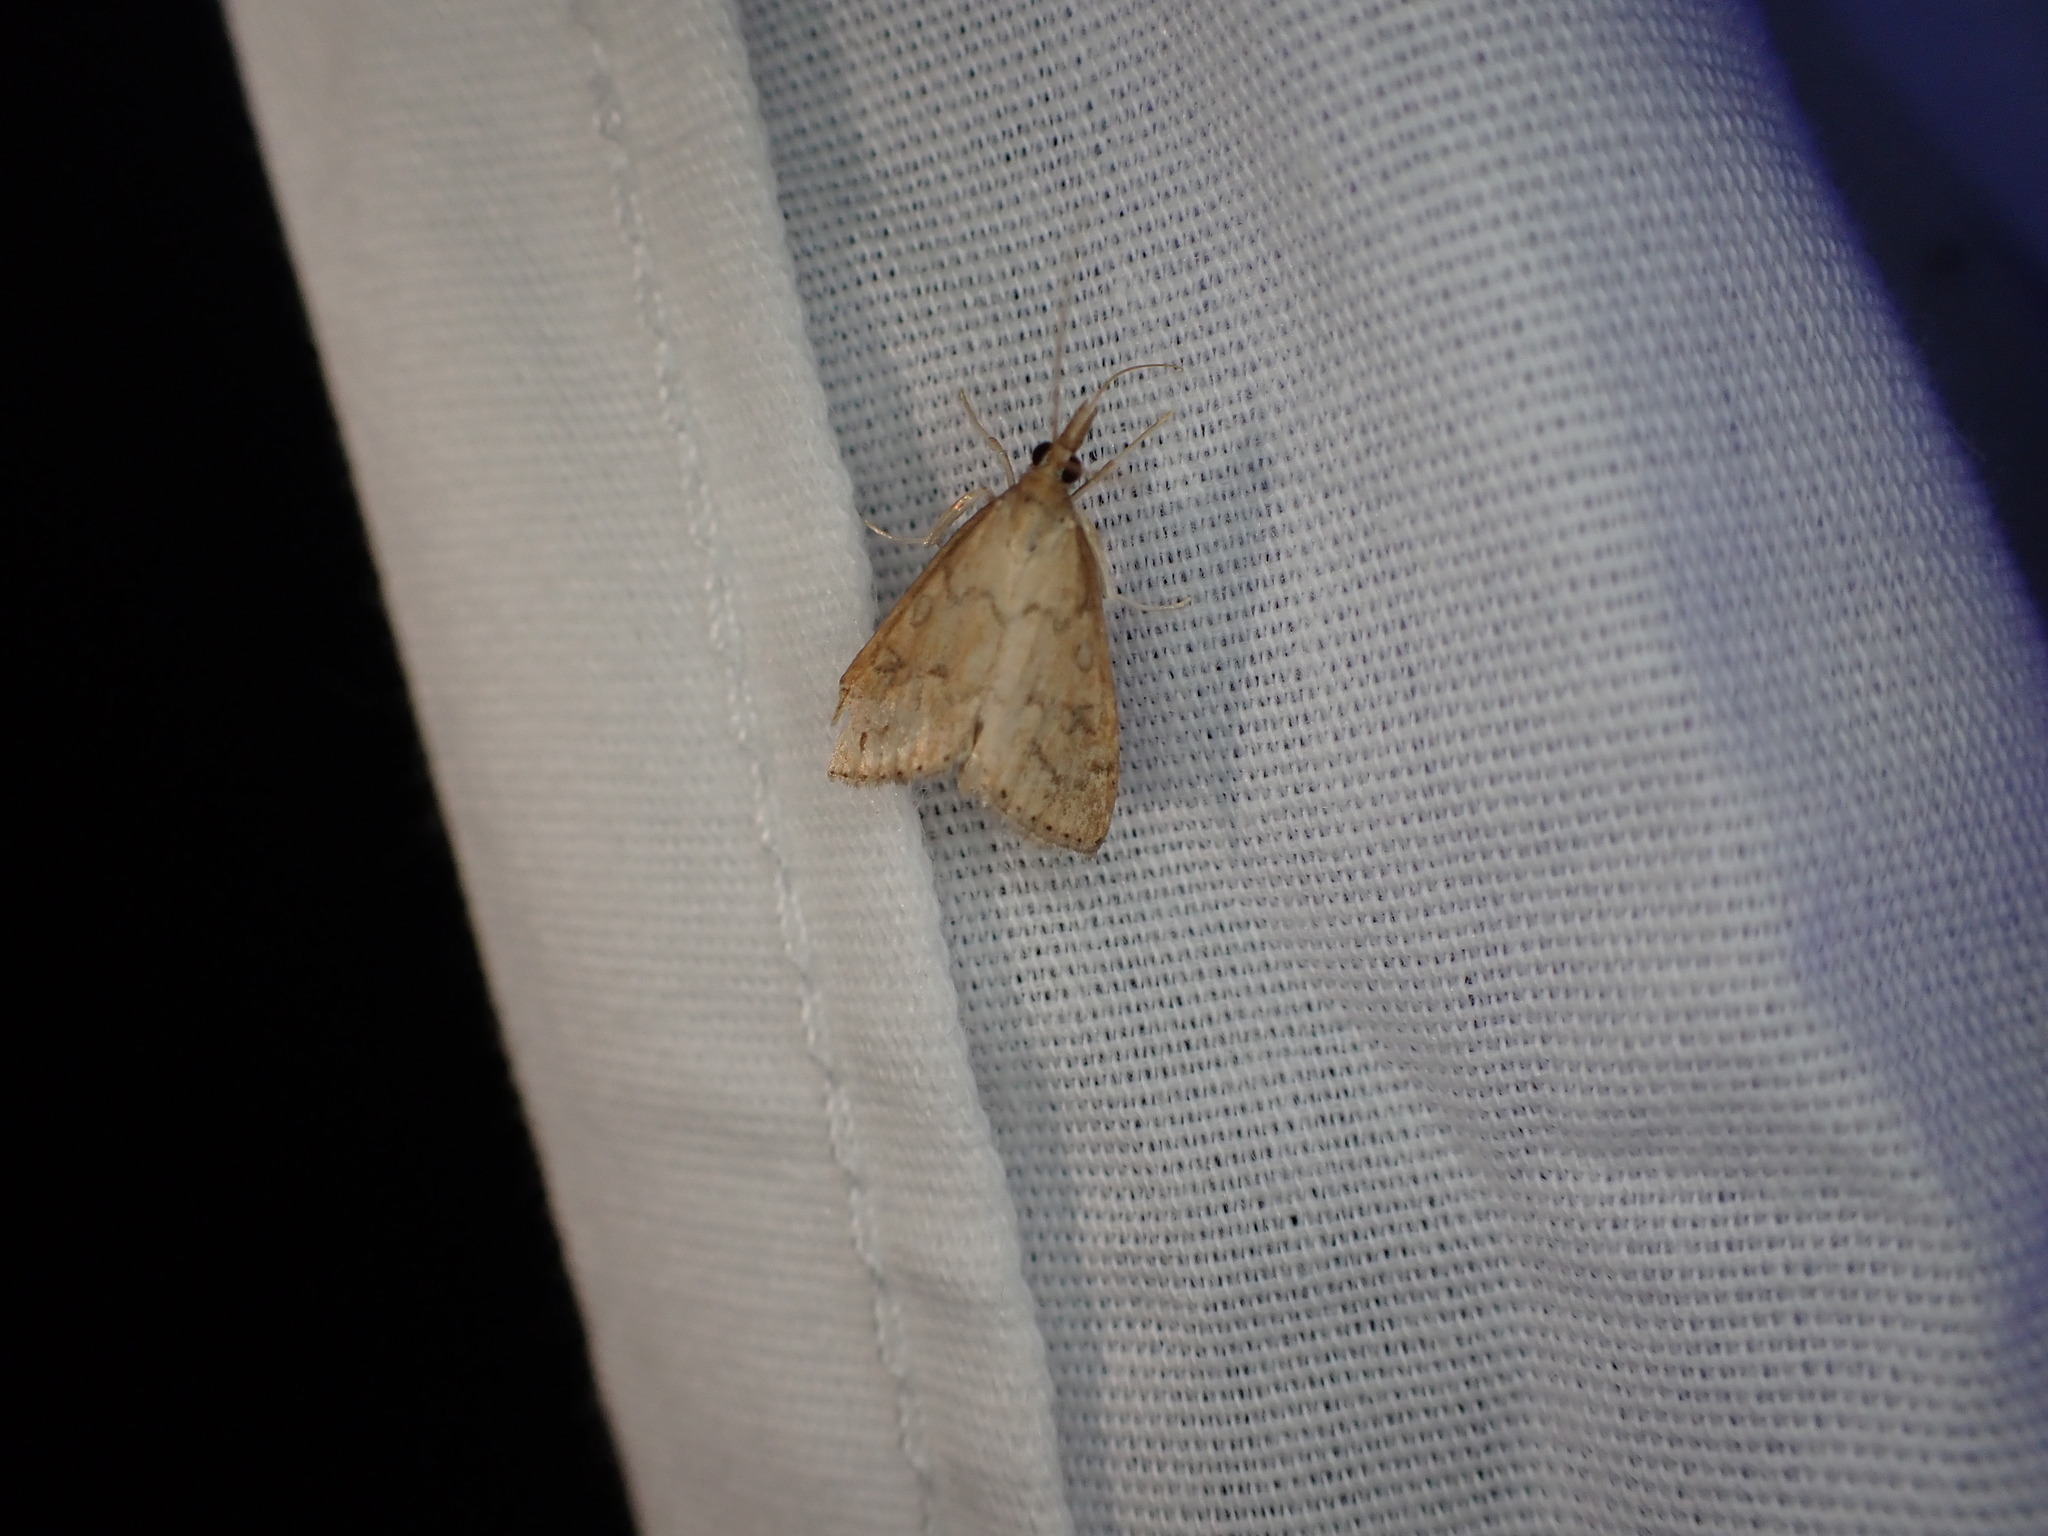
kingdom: Animalia
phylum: Arthropoda
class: Insecta
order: Lepidoptera
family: Crambidae
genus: Udea
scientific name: Udea rubigalis
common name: Celery leaftier moth
